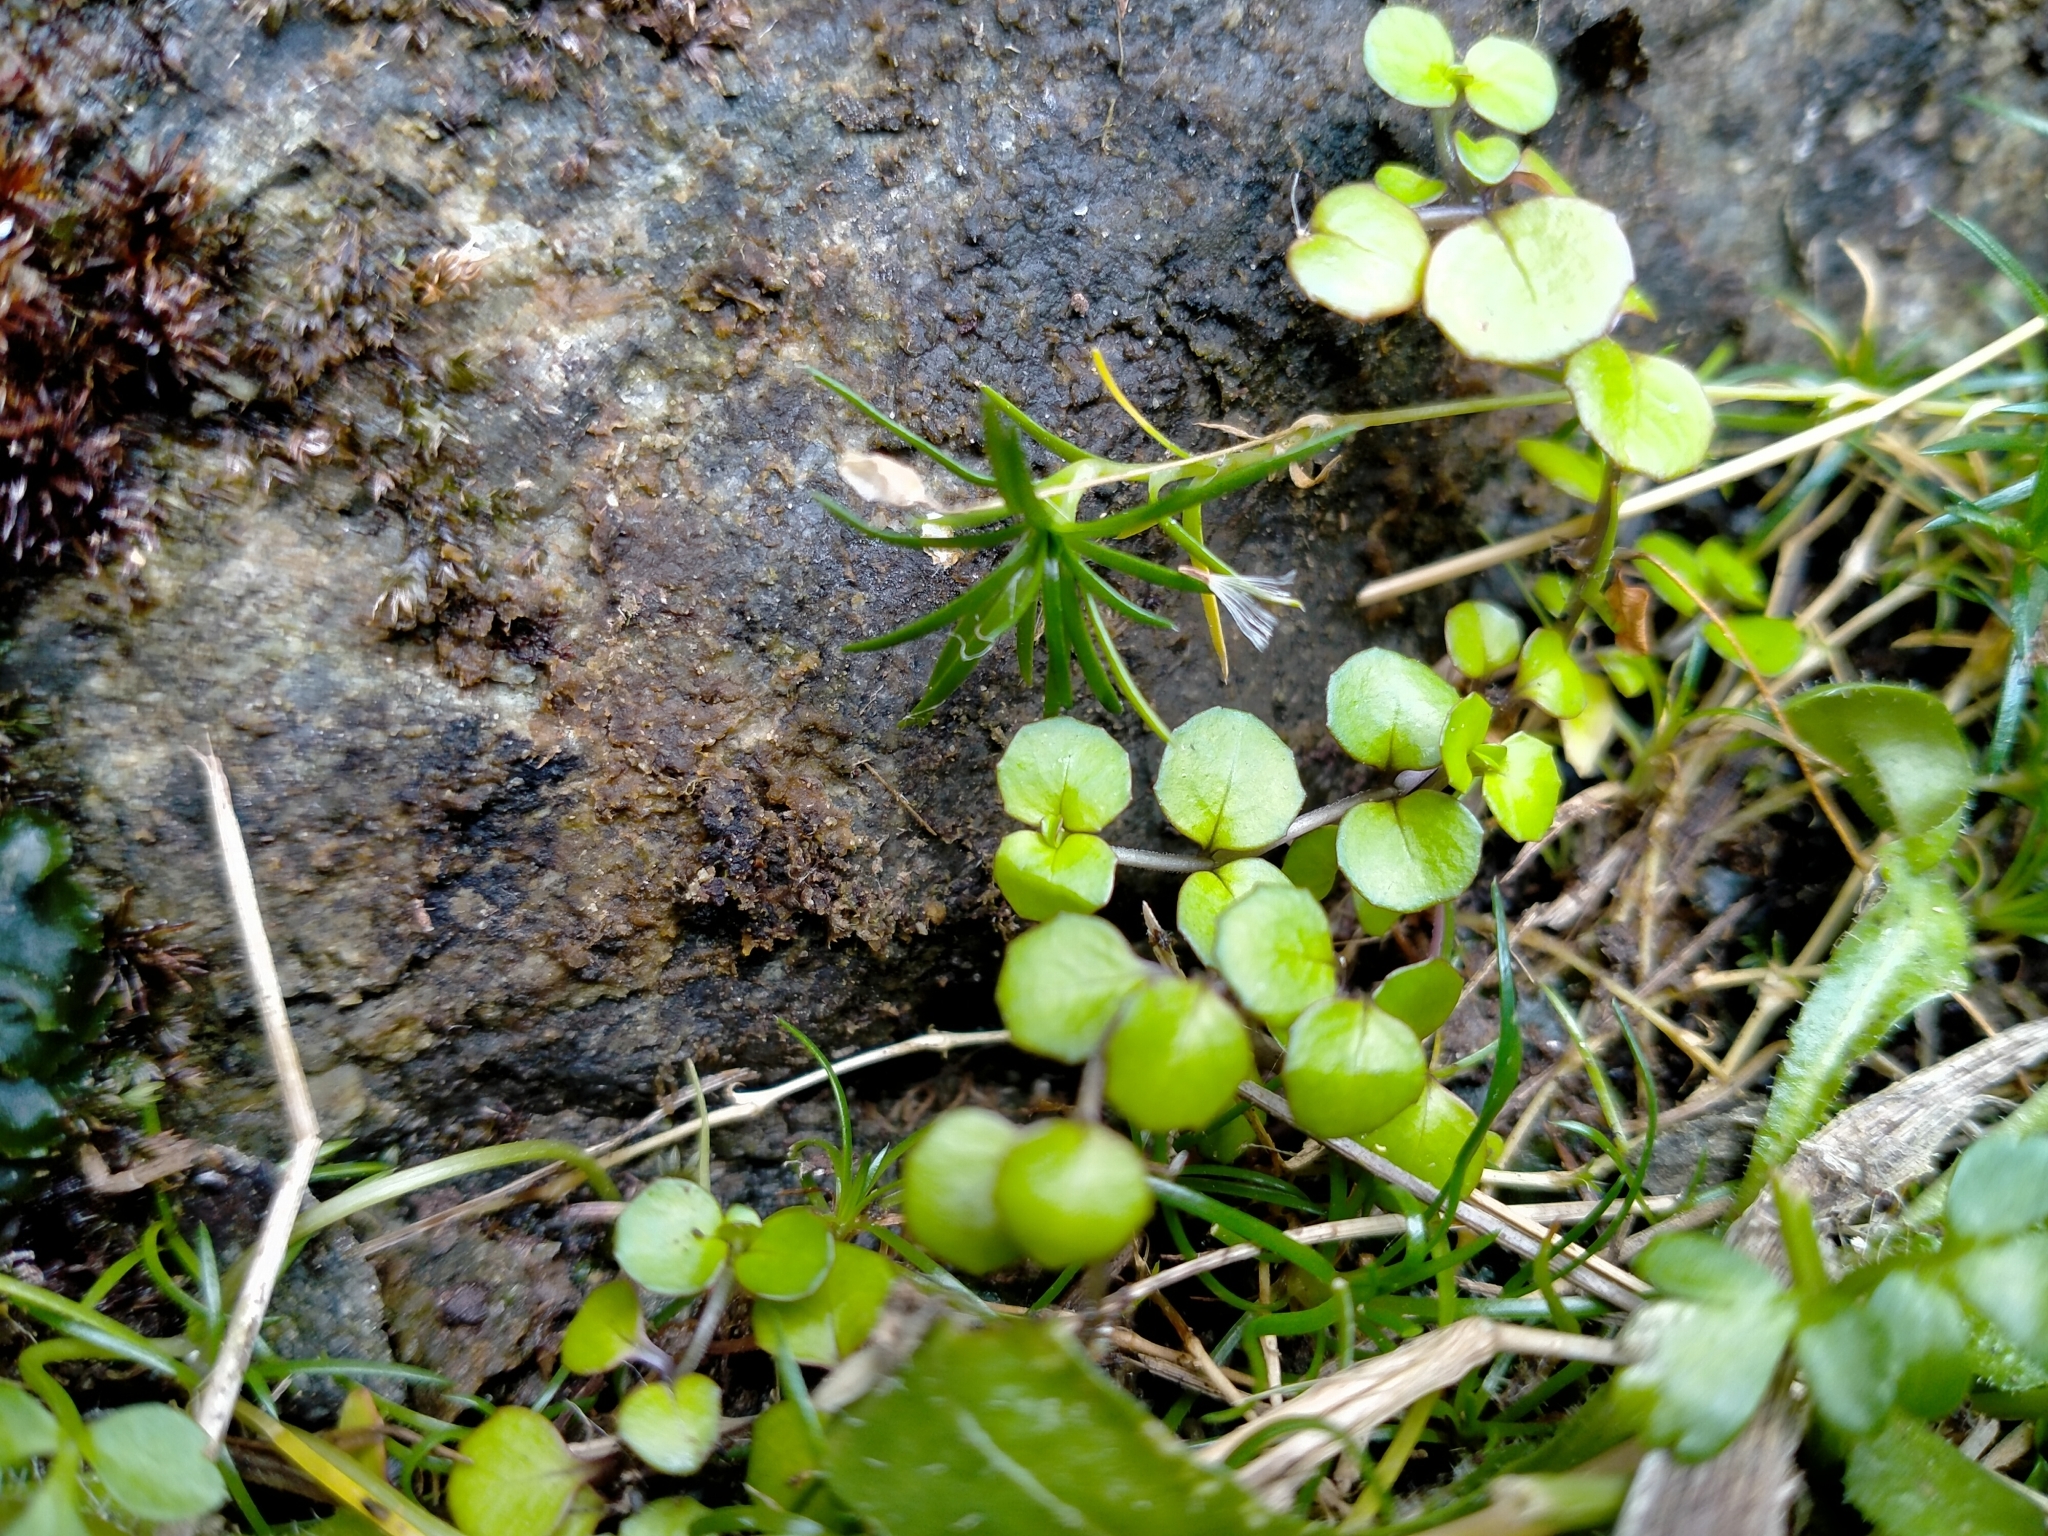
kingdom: Plantae
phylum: Tracheophyta
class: Magnoliopsida
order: Myrtales
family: Onagraceae
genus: Epilobium
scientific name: Epilobium nummularifolium
